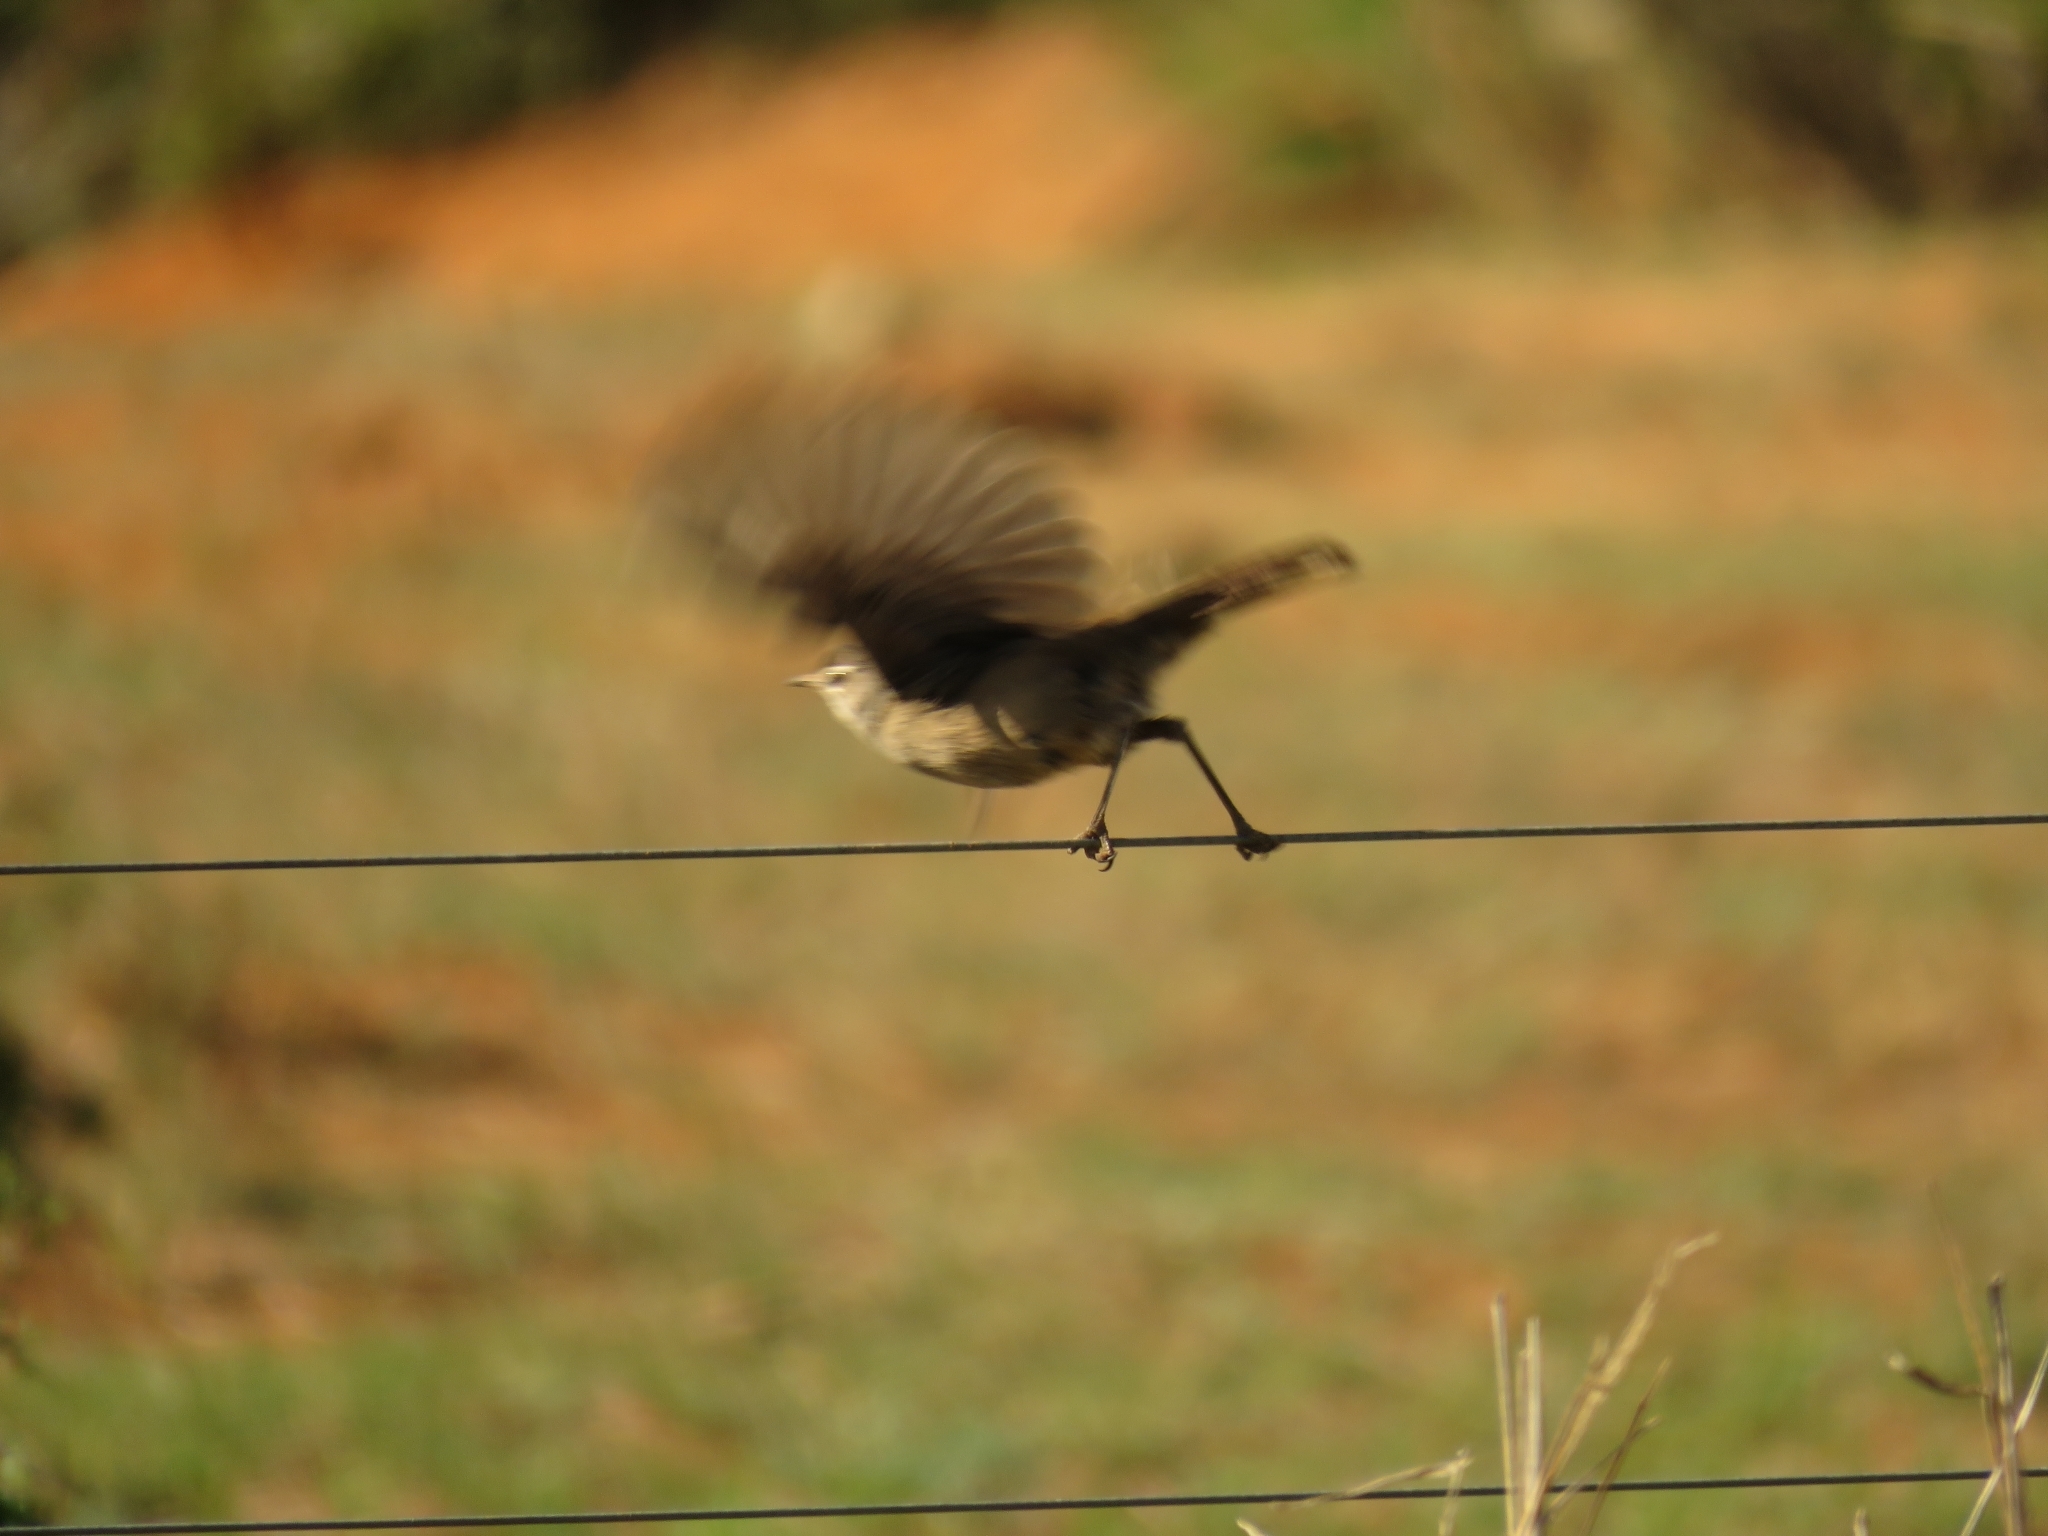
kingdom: Animalia
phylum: Chordata
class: Aves
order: Passeriformes
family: Muscicapidae
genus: Erythropygia
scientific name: Erythropygia coryphoeus
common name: Karoo scrub robin
